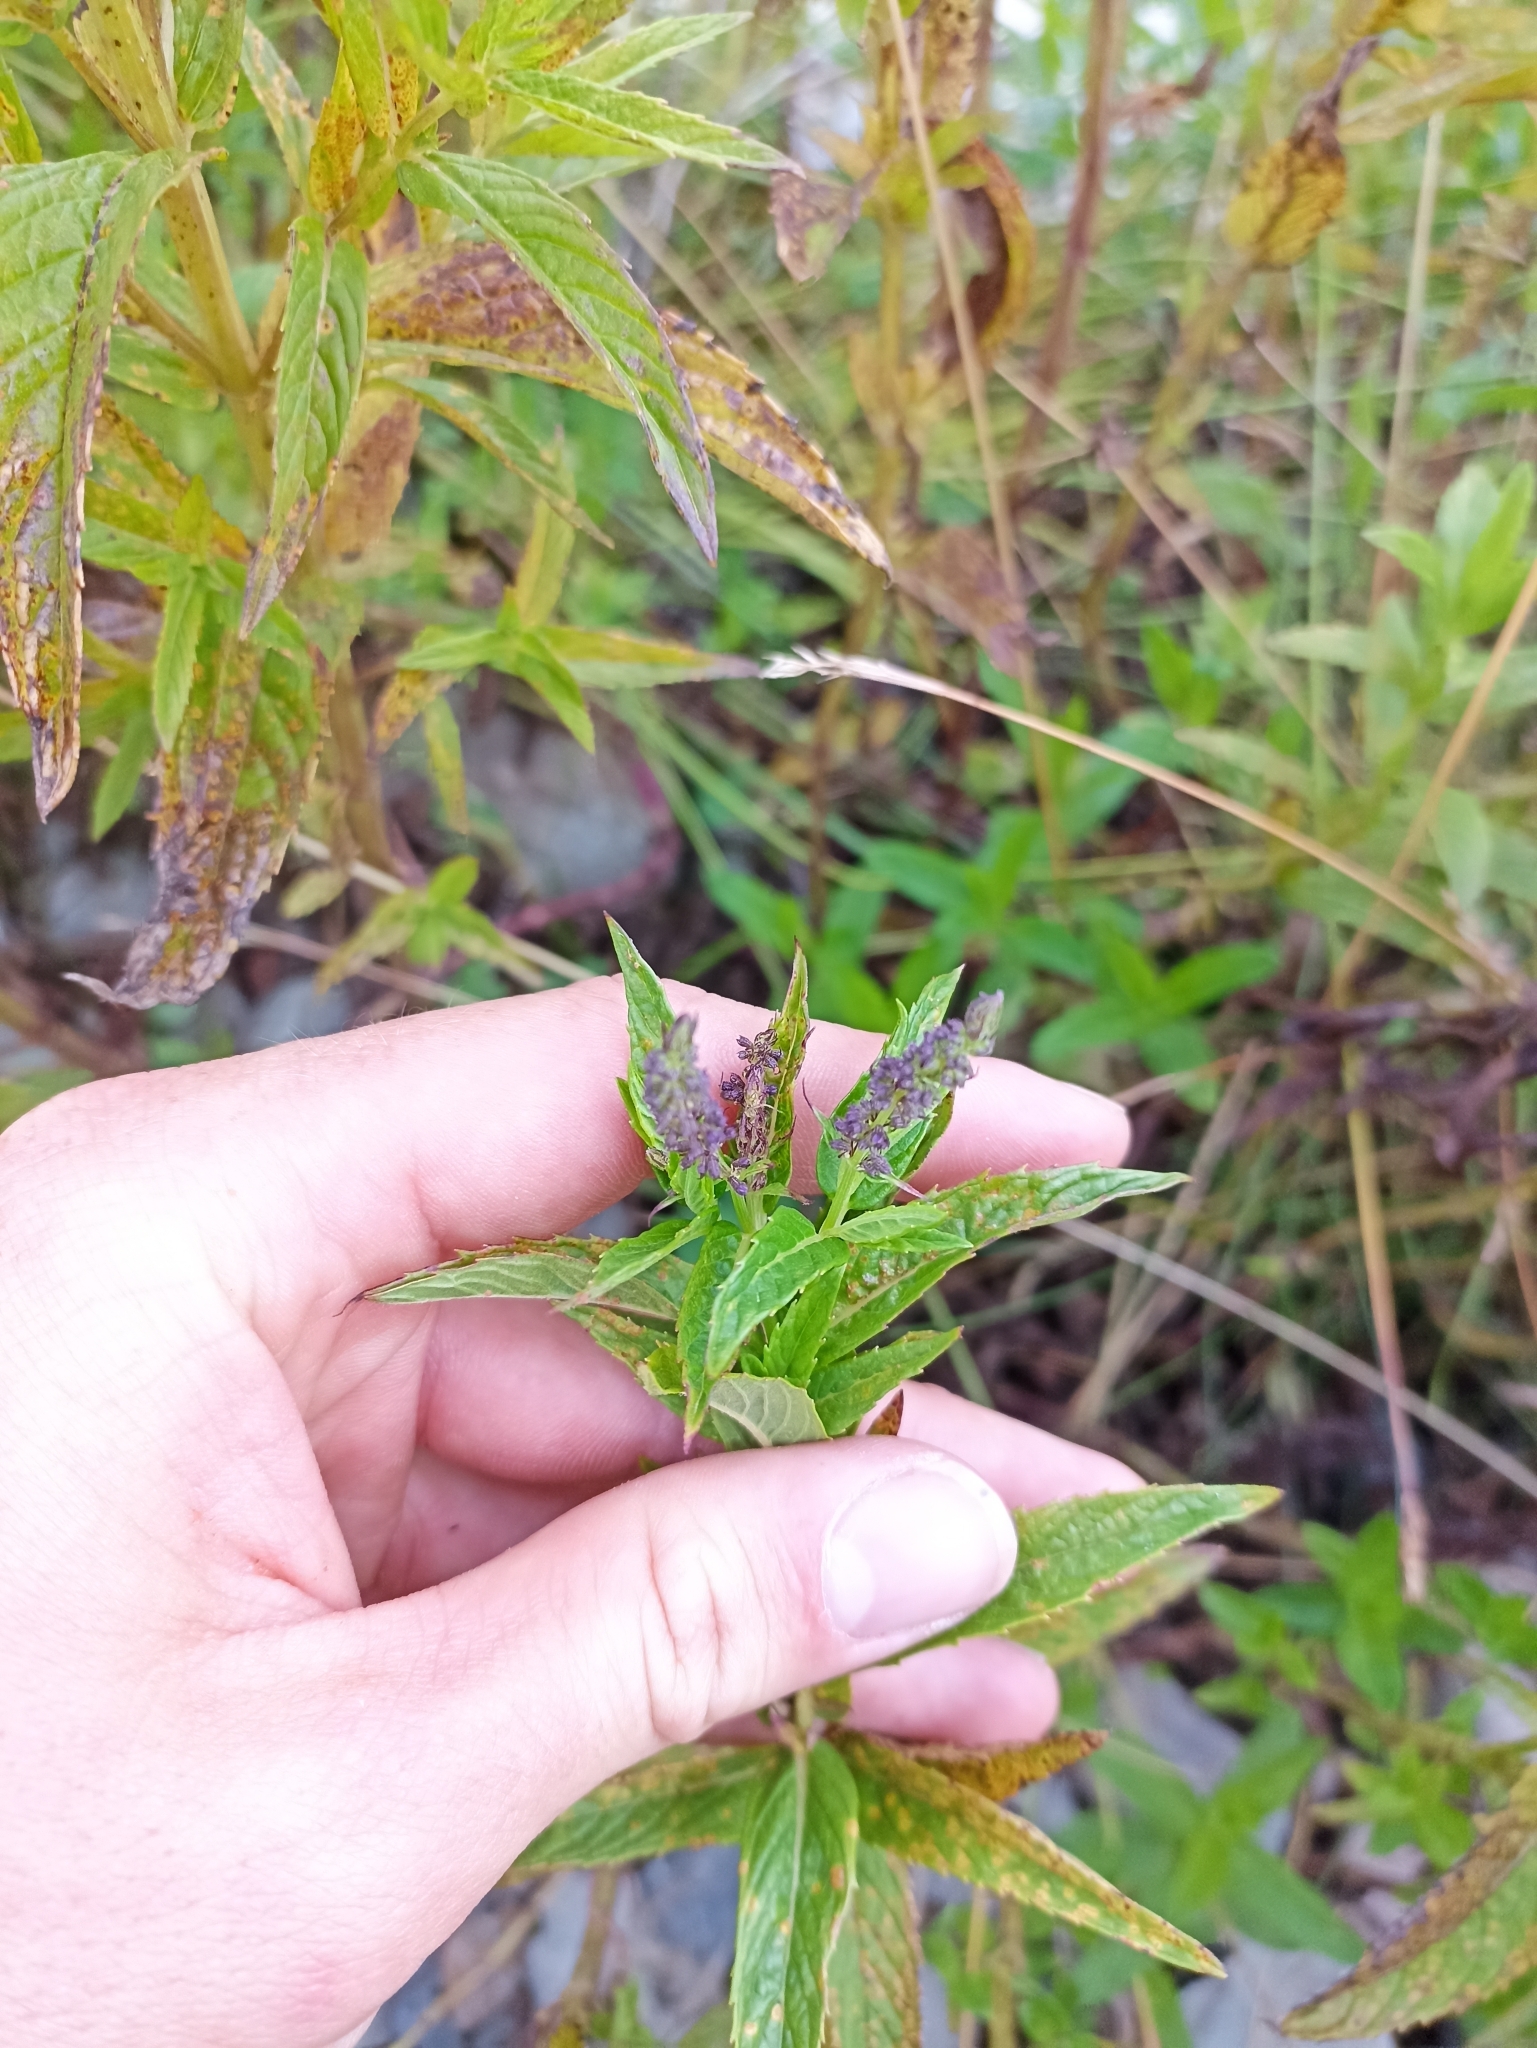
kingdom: Plantae
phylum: Tracheophyta
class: Magnoliopsida
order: Lamiales
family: Lamiaceae
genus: Mentha
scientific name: Mentha spicata
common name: Spearmint
